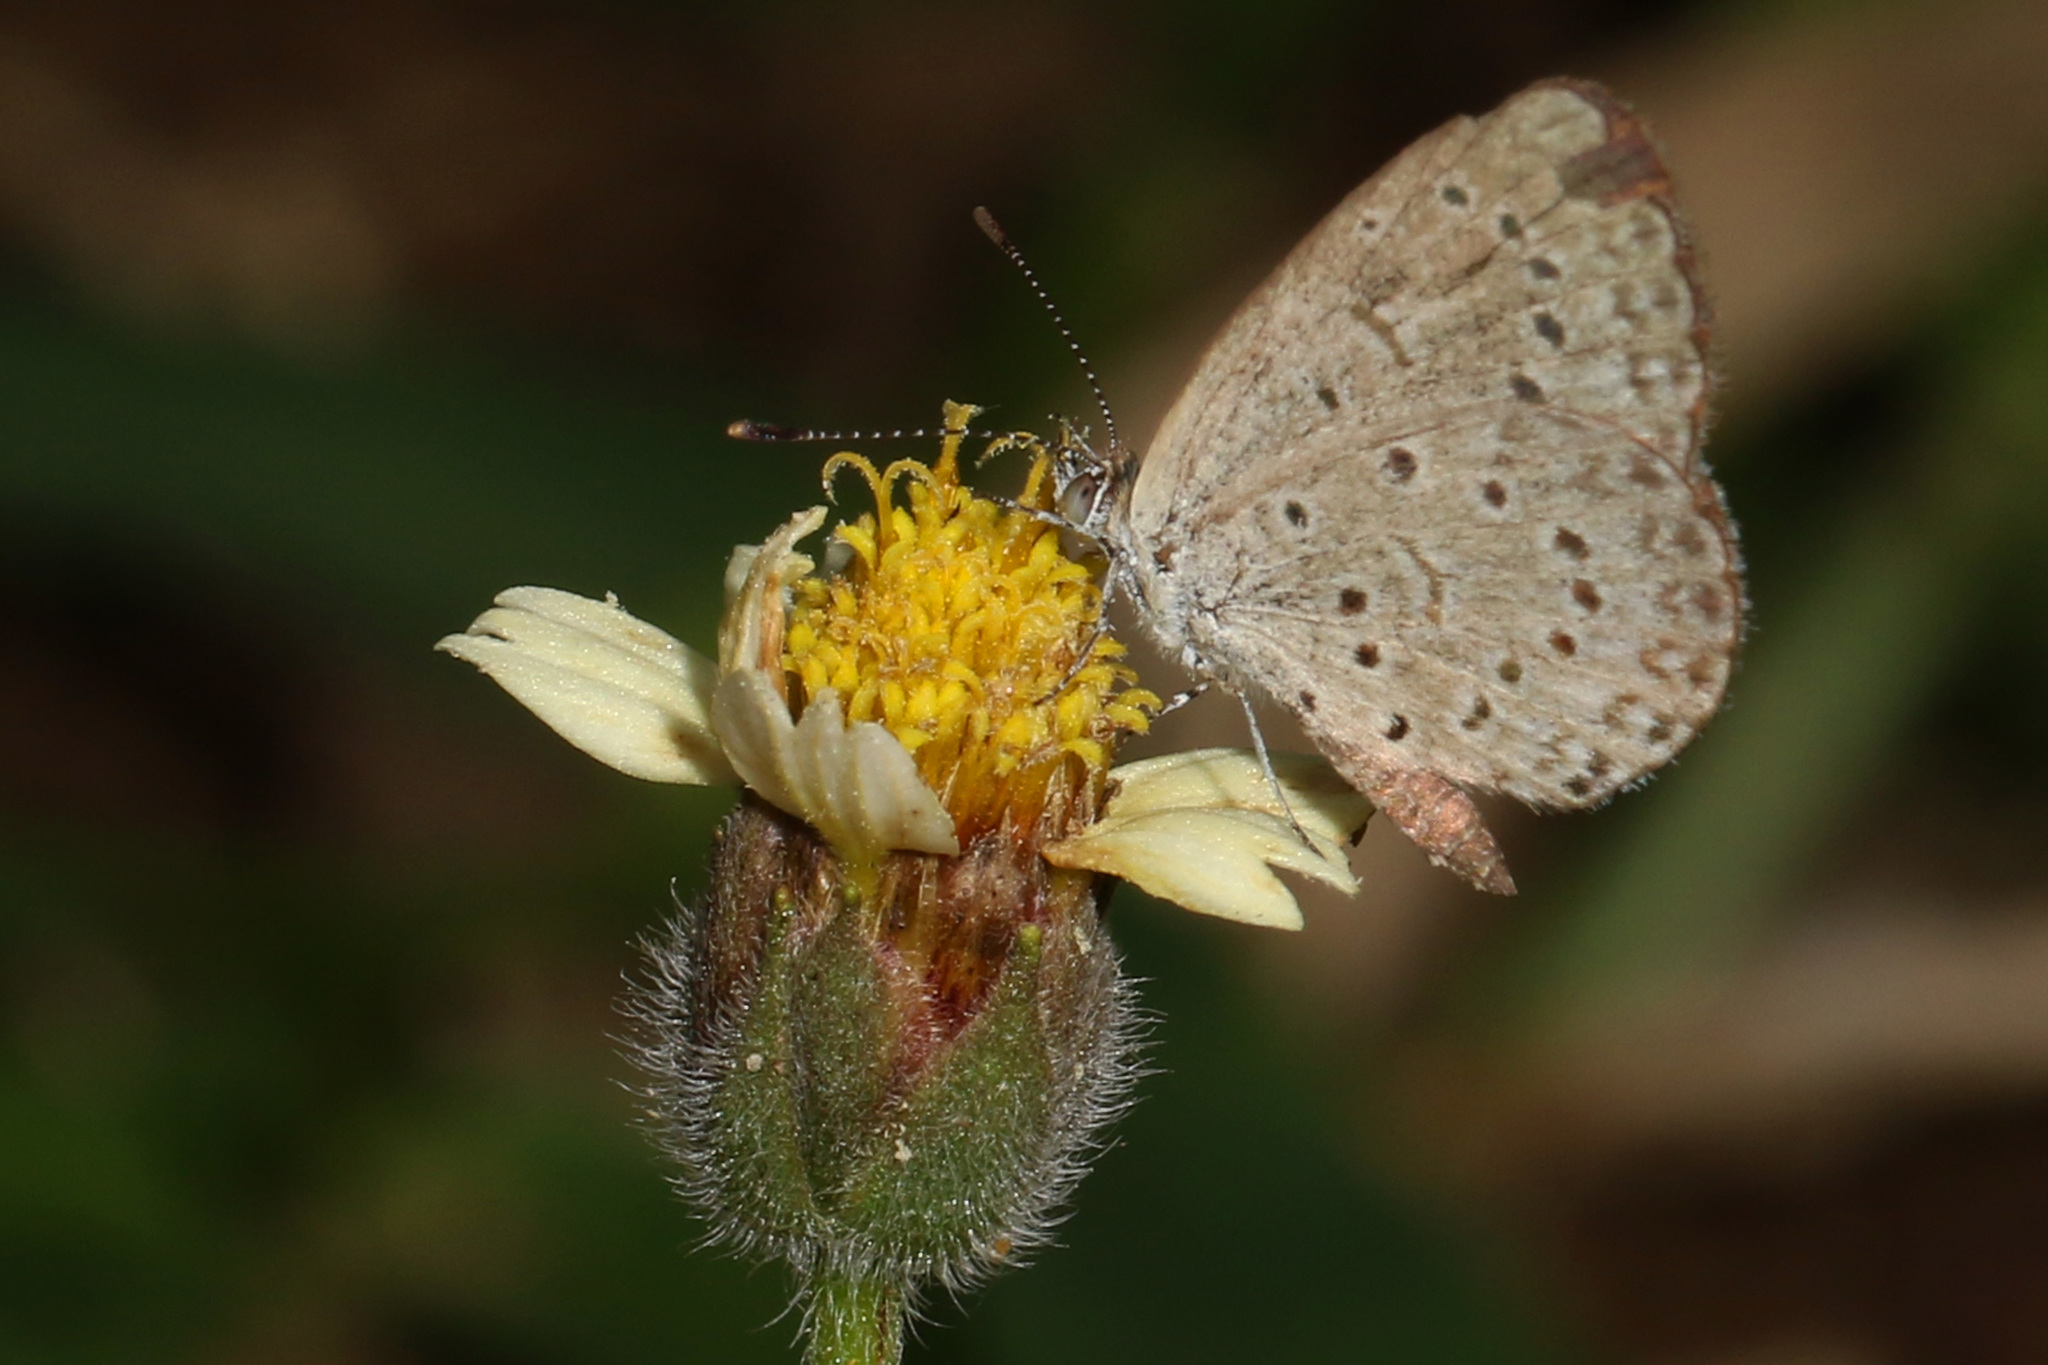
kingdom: Animalia
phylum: Arthropoda
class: Insecta
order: Lepidoptera
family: Lycaenidae
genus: Zizeeria
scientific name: Zizeeria knysna
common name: African grass blue
